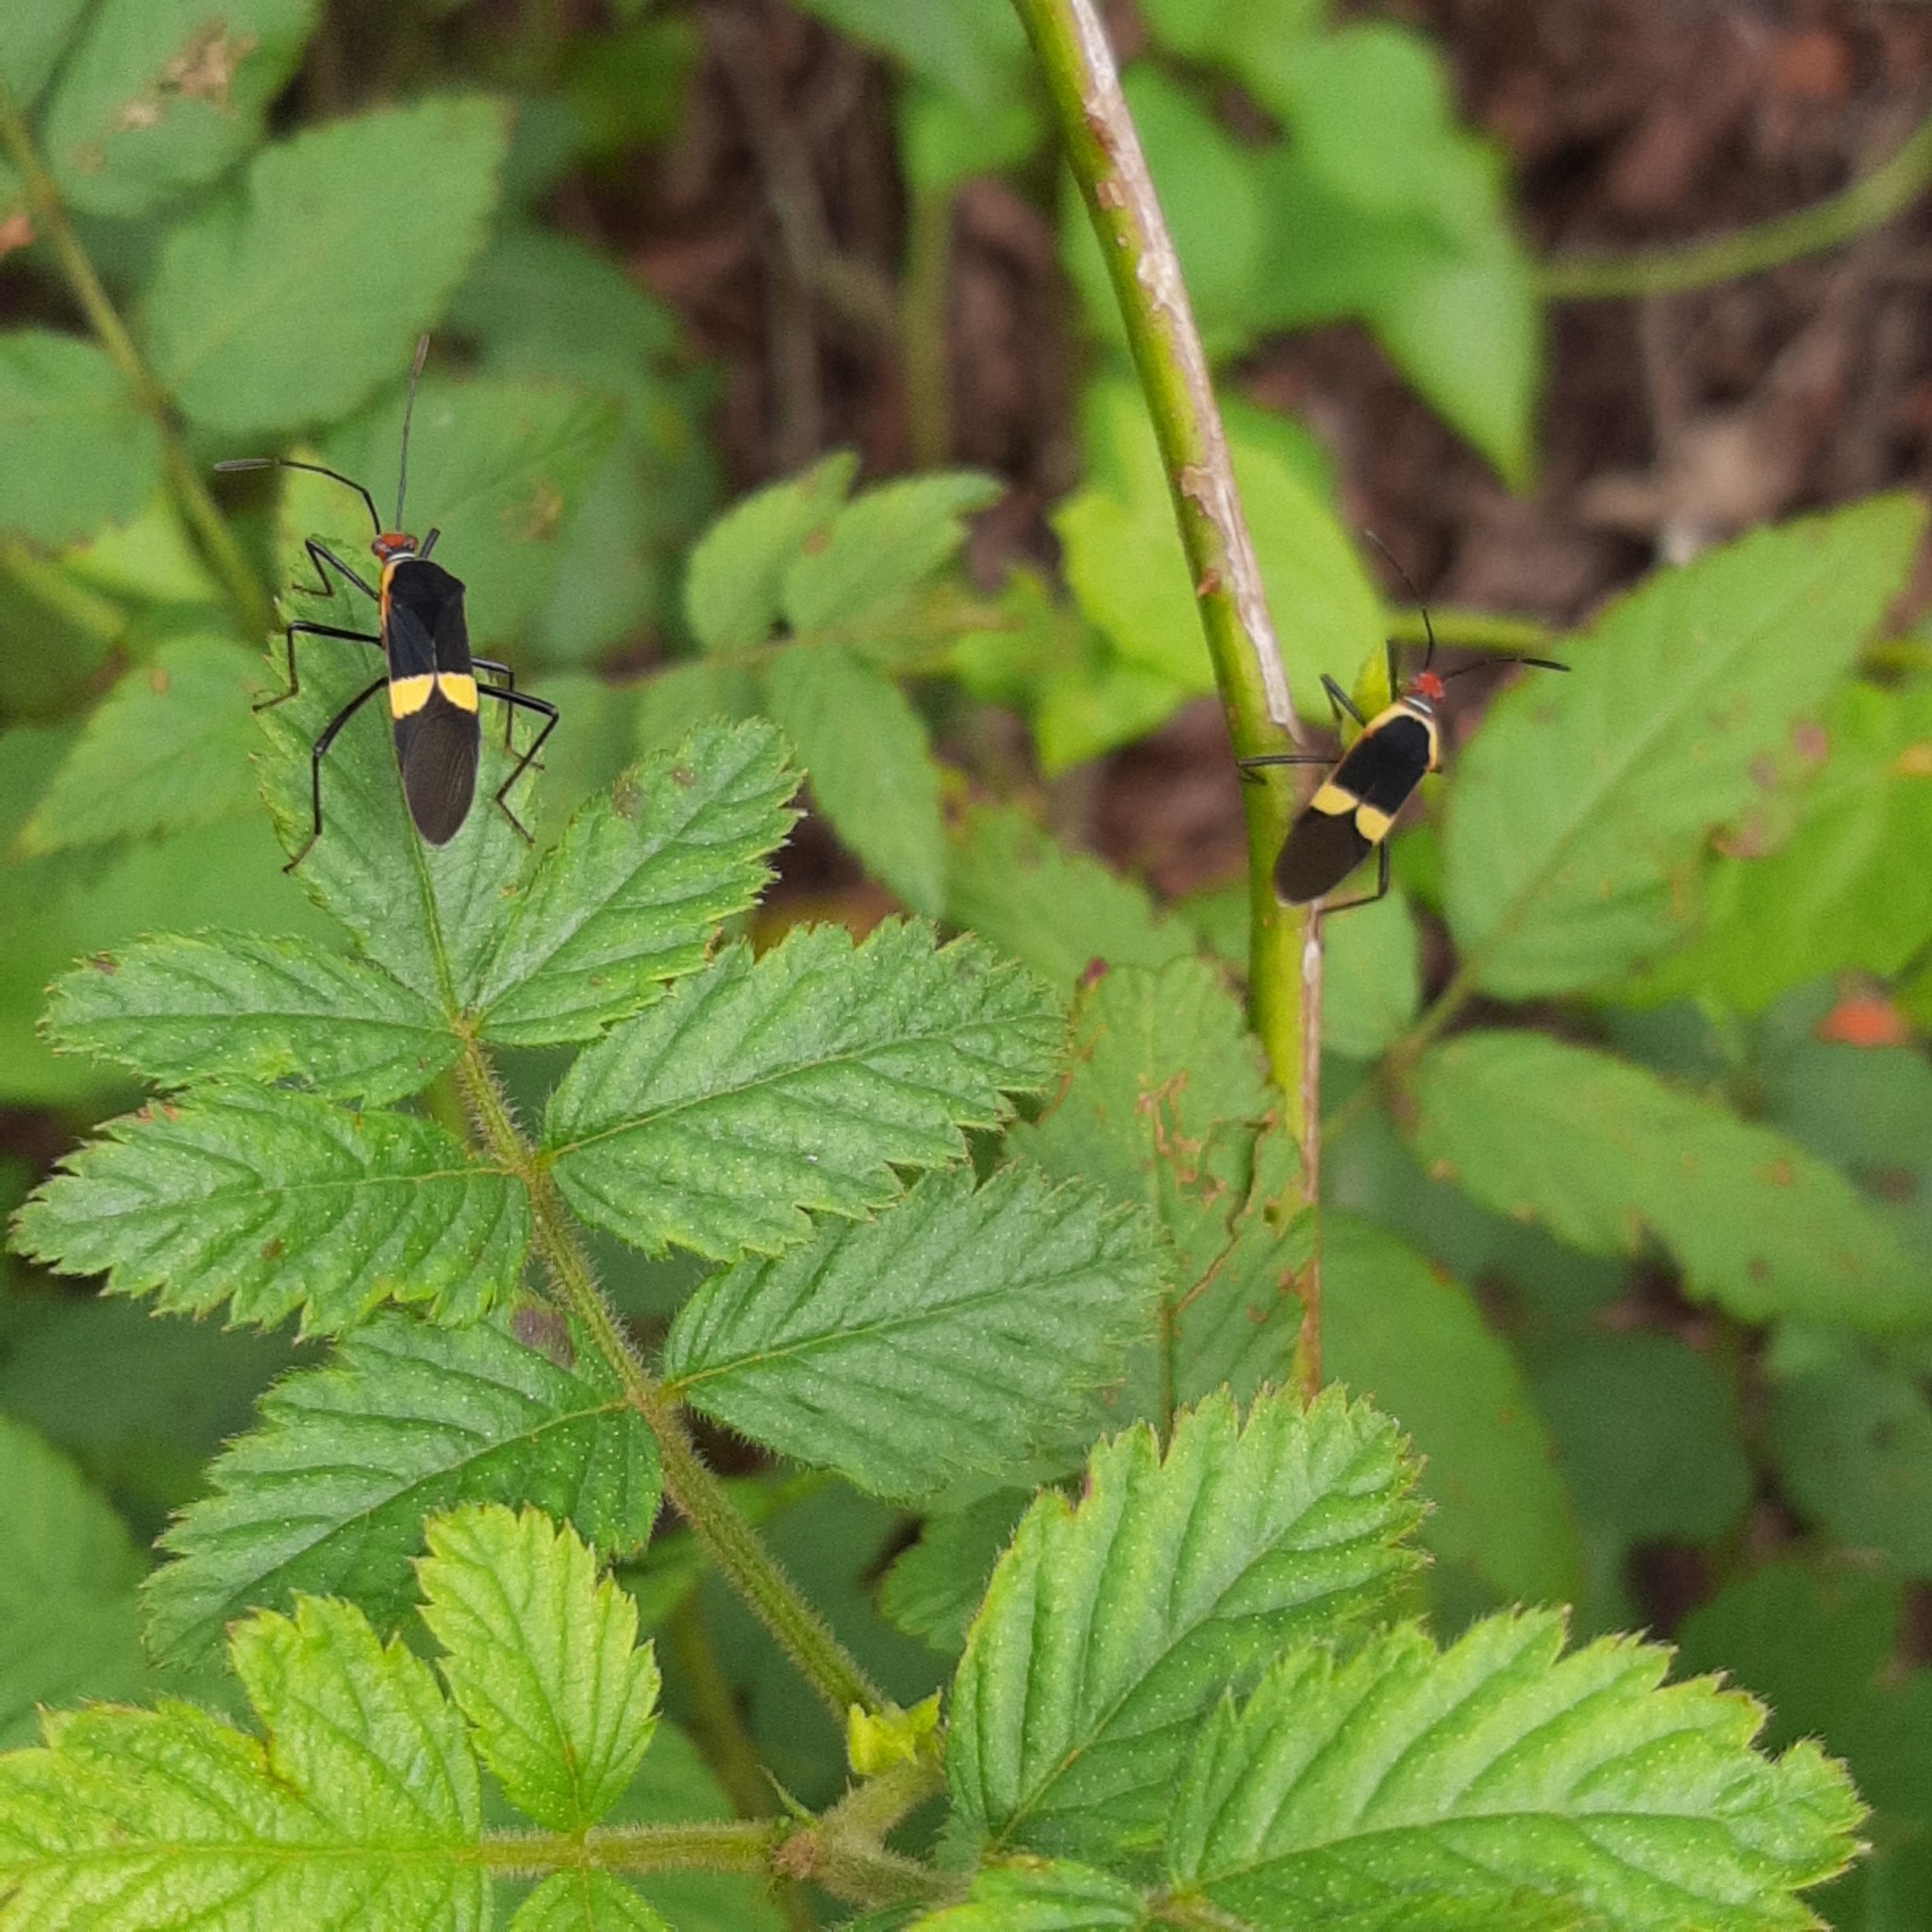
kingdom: Animalia
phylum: Arthropoda
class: Insecta
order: Hemiptera
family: Coreidae
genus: Hypselonotus
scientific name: Hypselonotus interruptus
